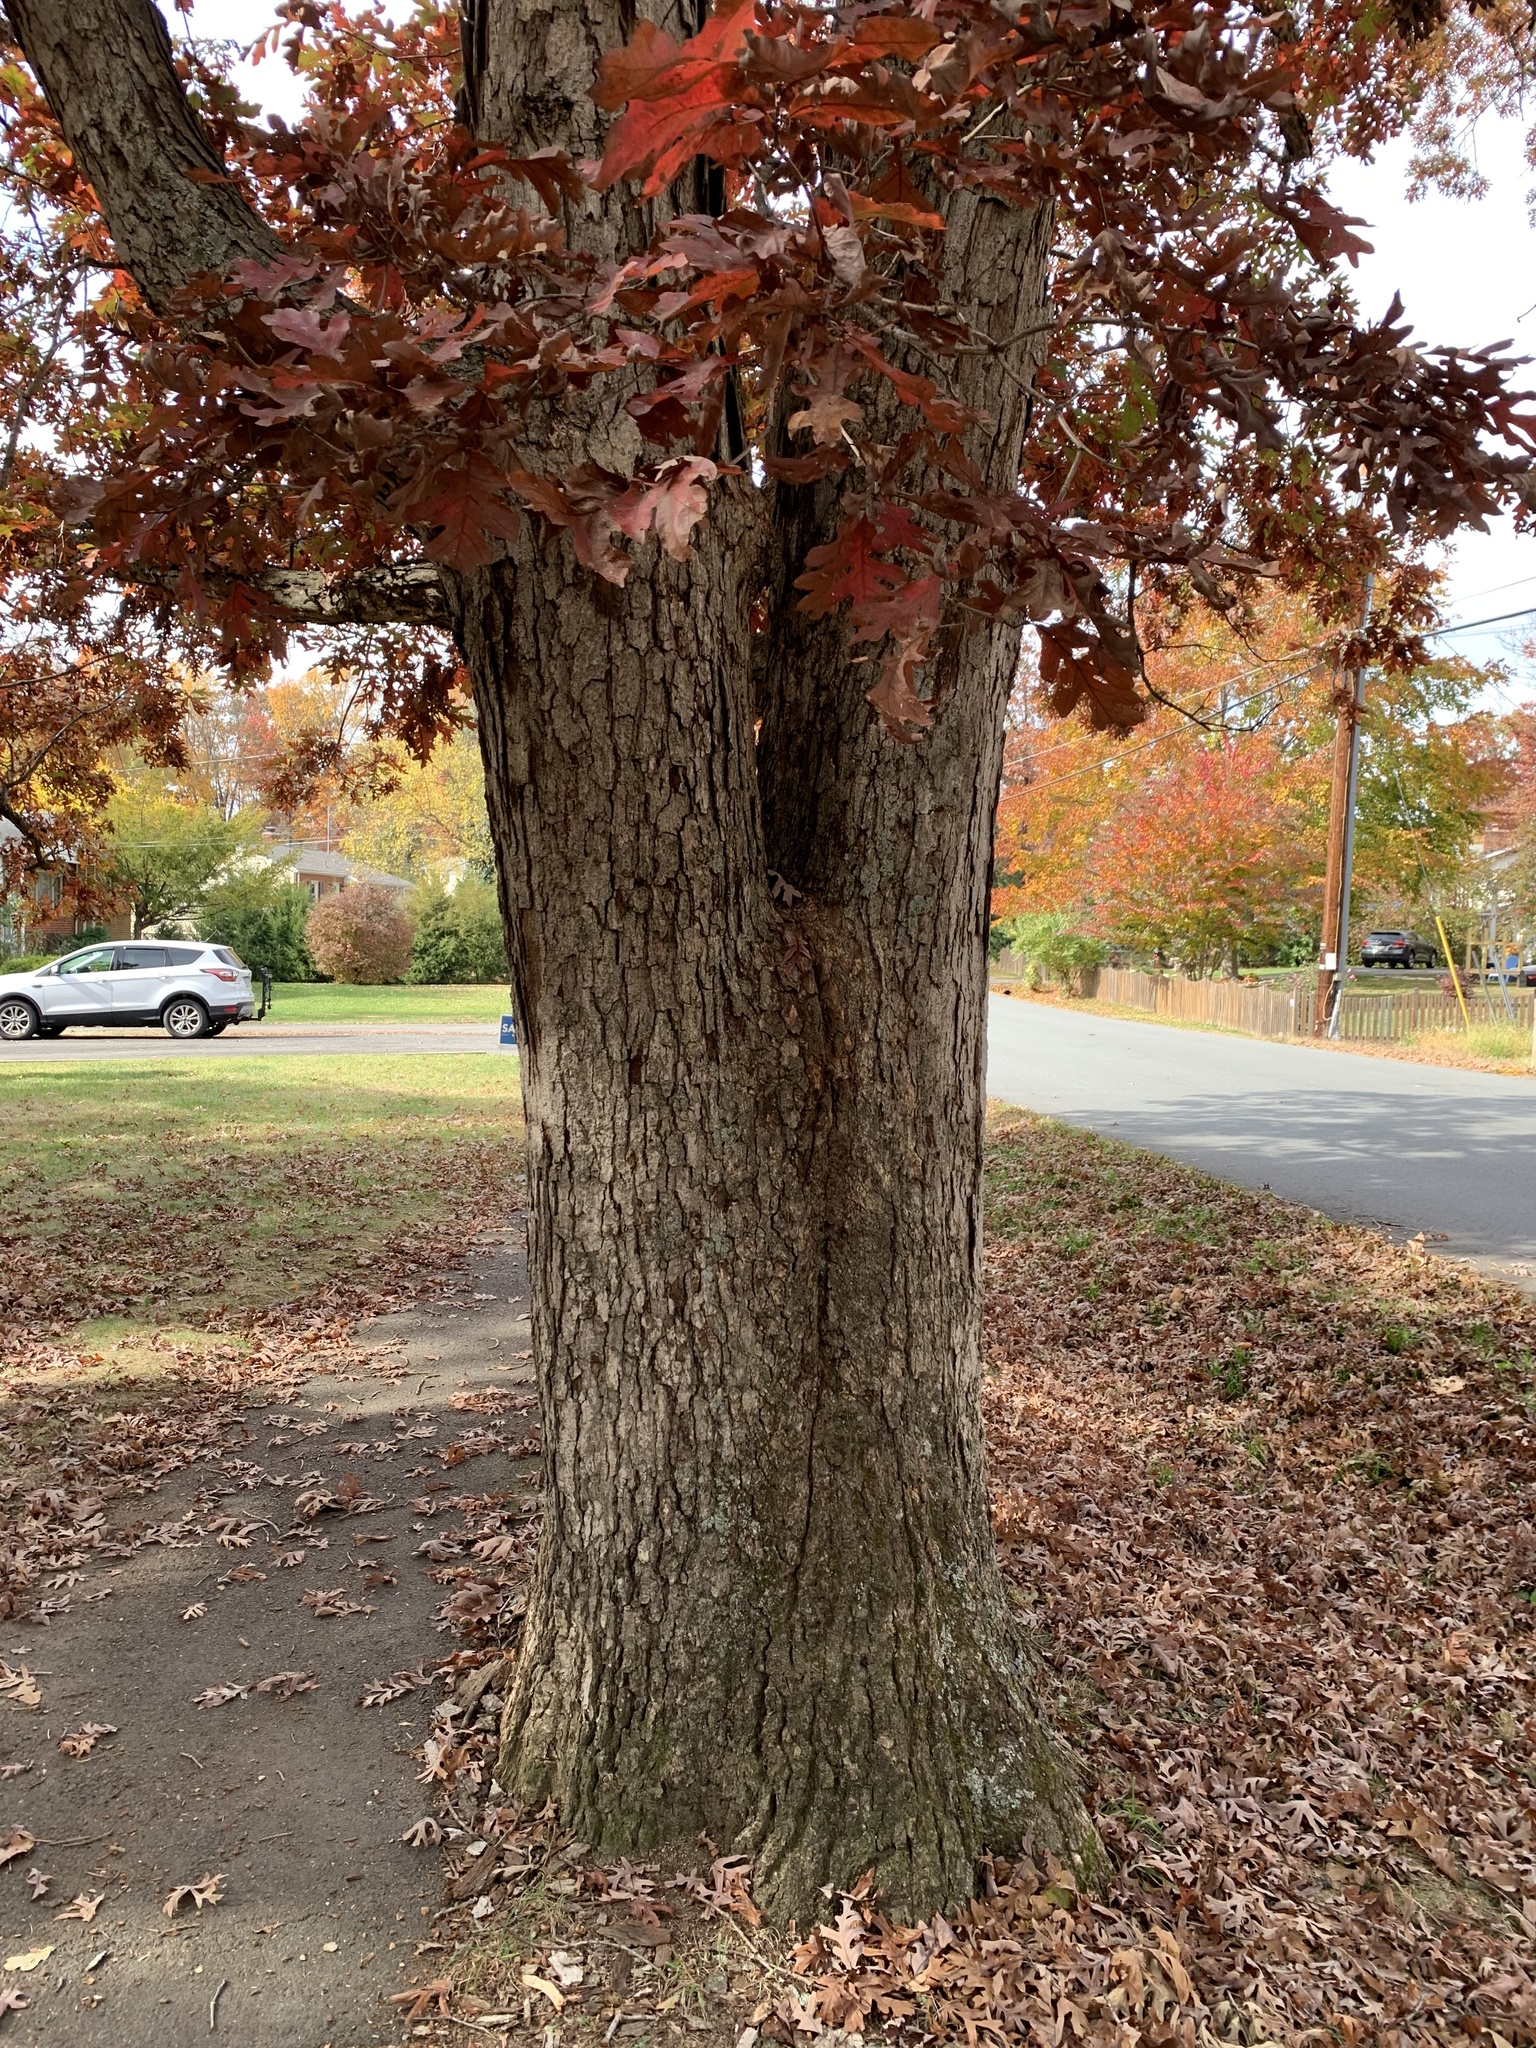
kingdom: Plantae
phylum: Tracheophyta
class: Magnoliopsida
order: Fagales
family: Fagaceae
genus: Quercus
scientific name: Quercus alba
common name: White oak
